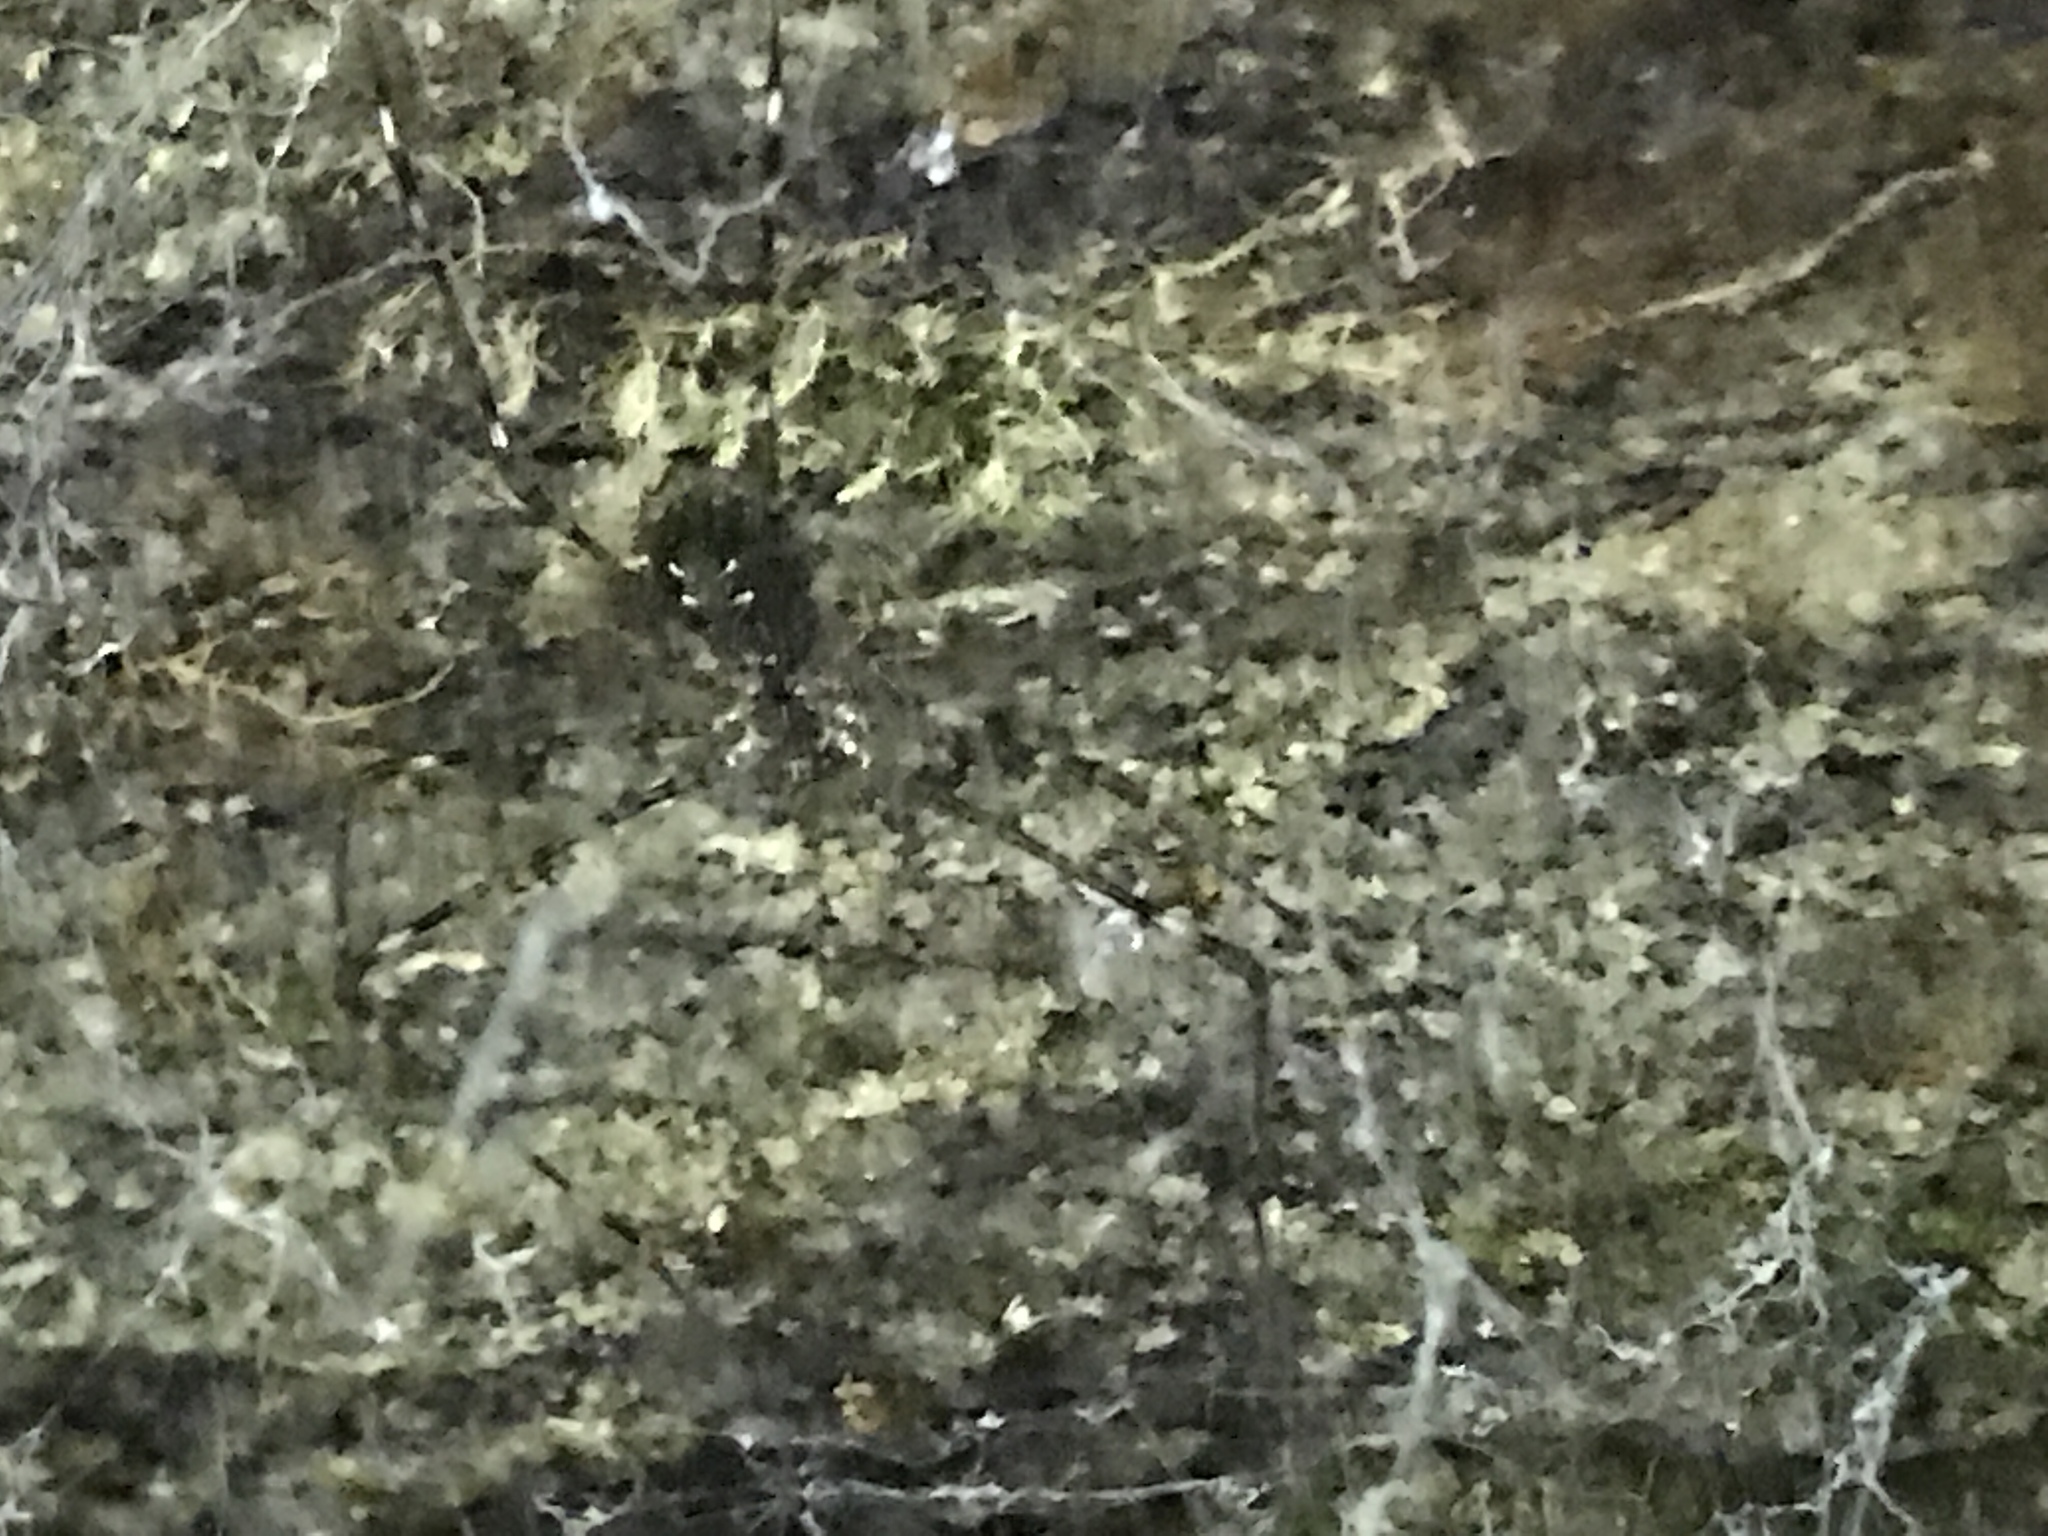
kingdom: Animalia
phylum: Arthropoda
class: Arachnida
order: Araneae
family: Hypochilidae
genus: Hypochilus
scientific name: Hypochilus pococki
